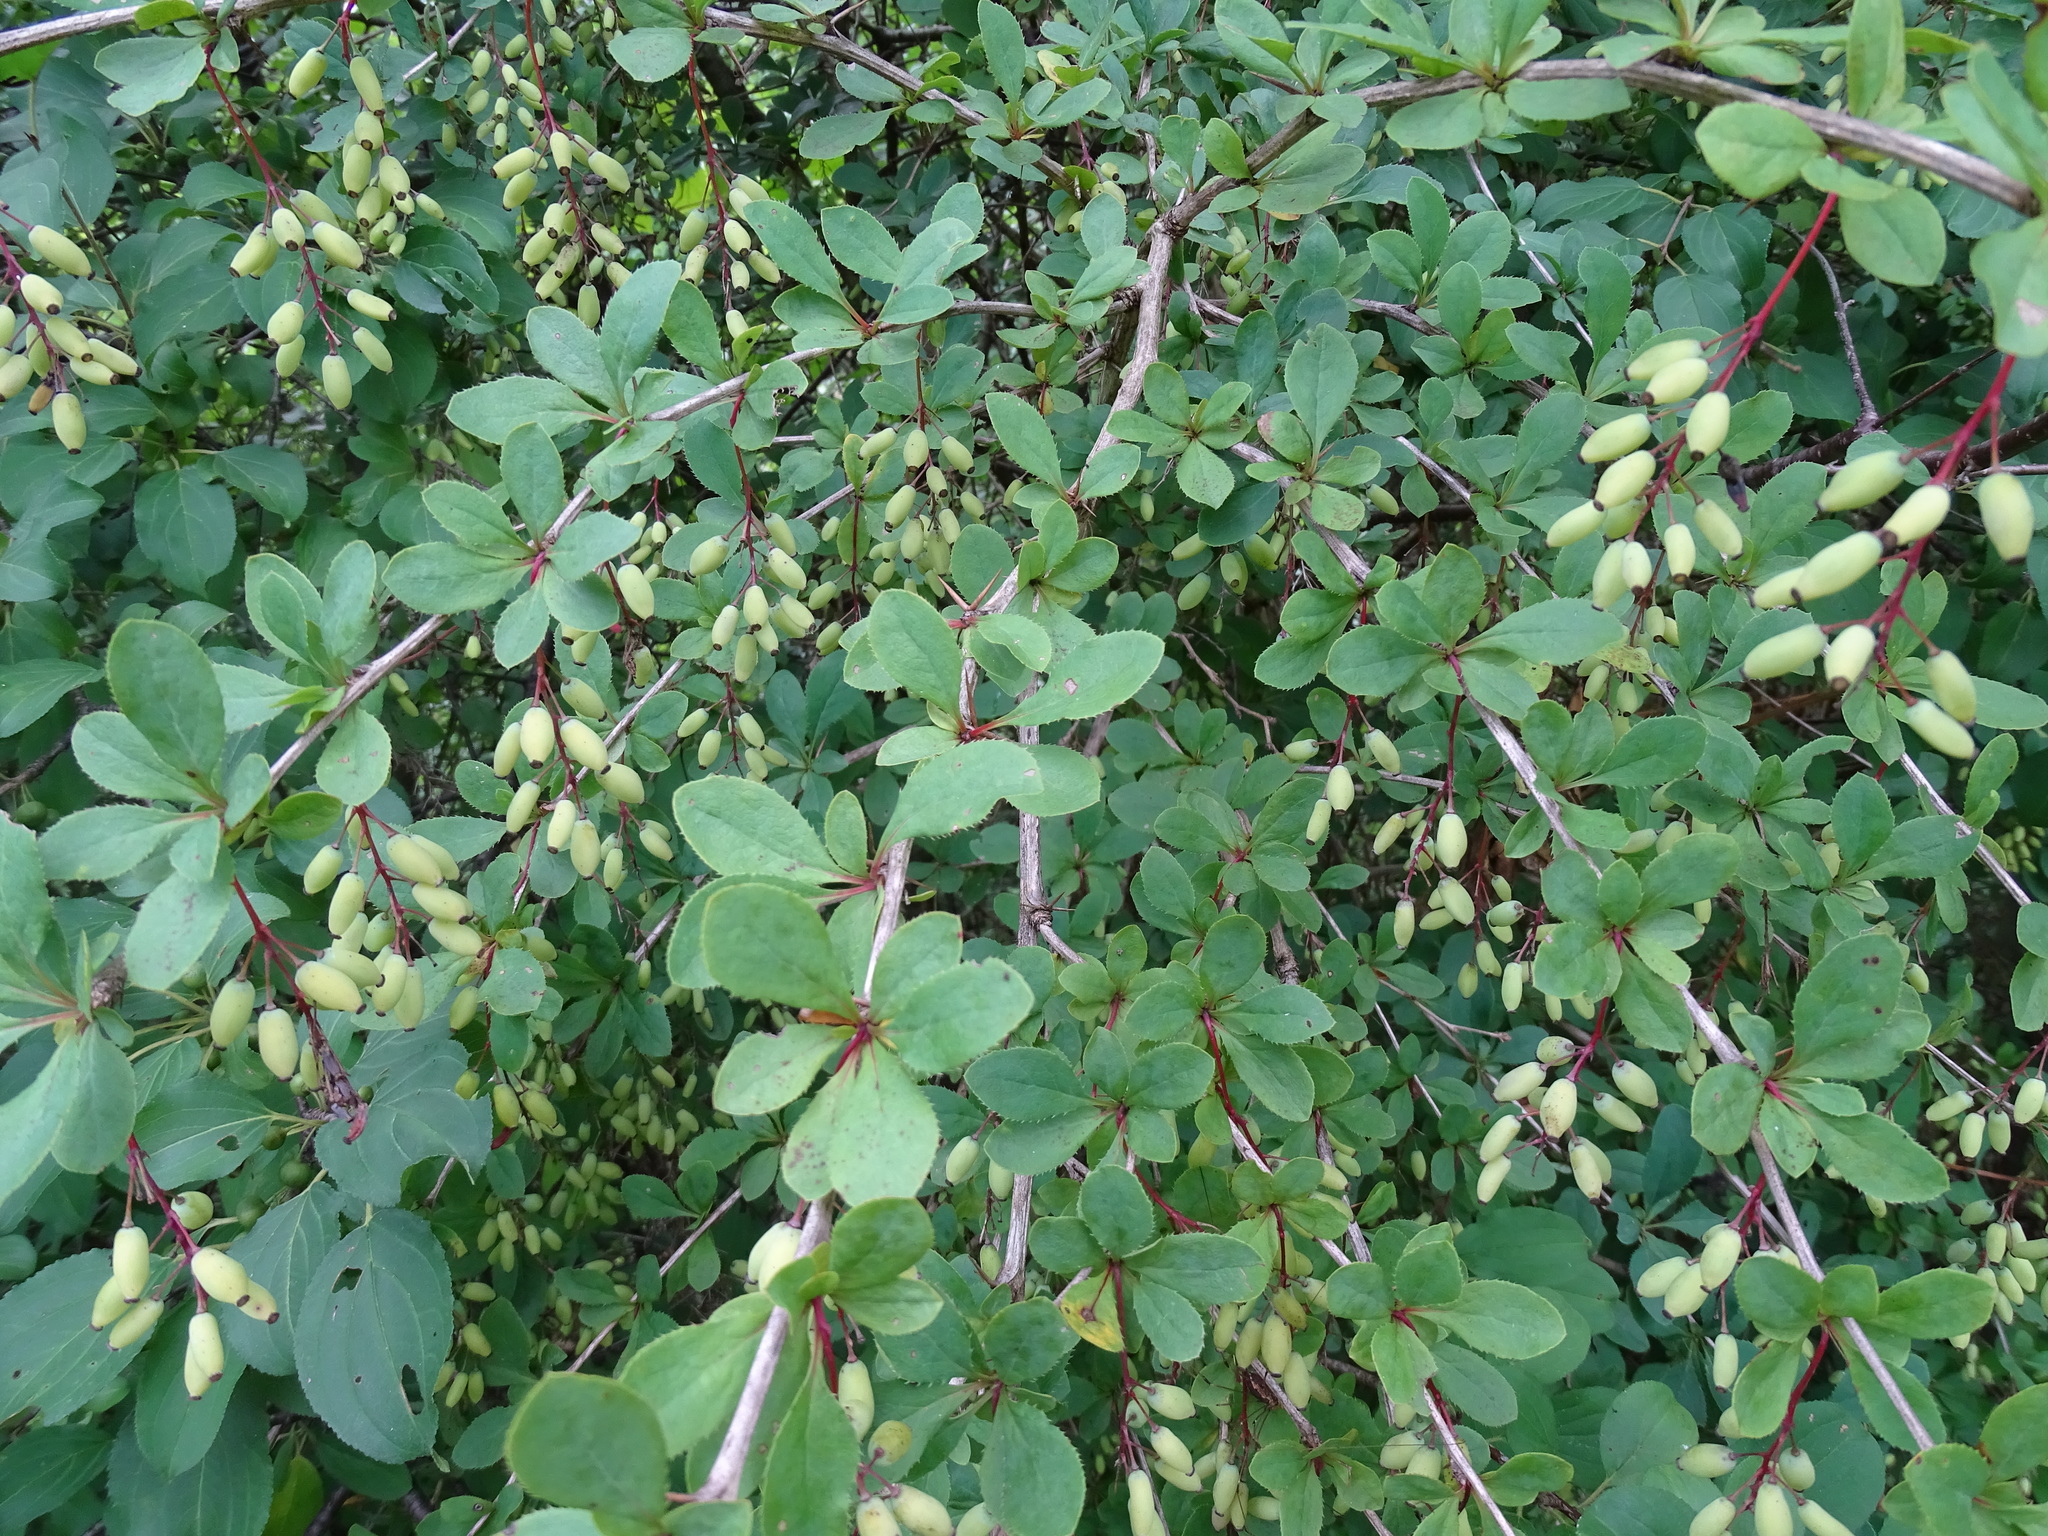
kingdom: Plantae
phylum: Tracheophyta
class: Magnoliopsida
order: Ranunculales
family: Berberidaceae
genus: Berberis
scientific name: Berberis vulgaris
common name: Barberry
